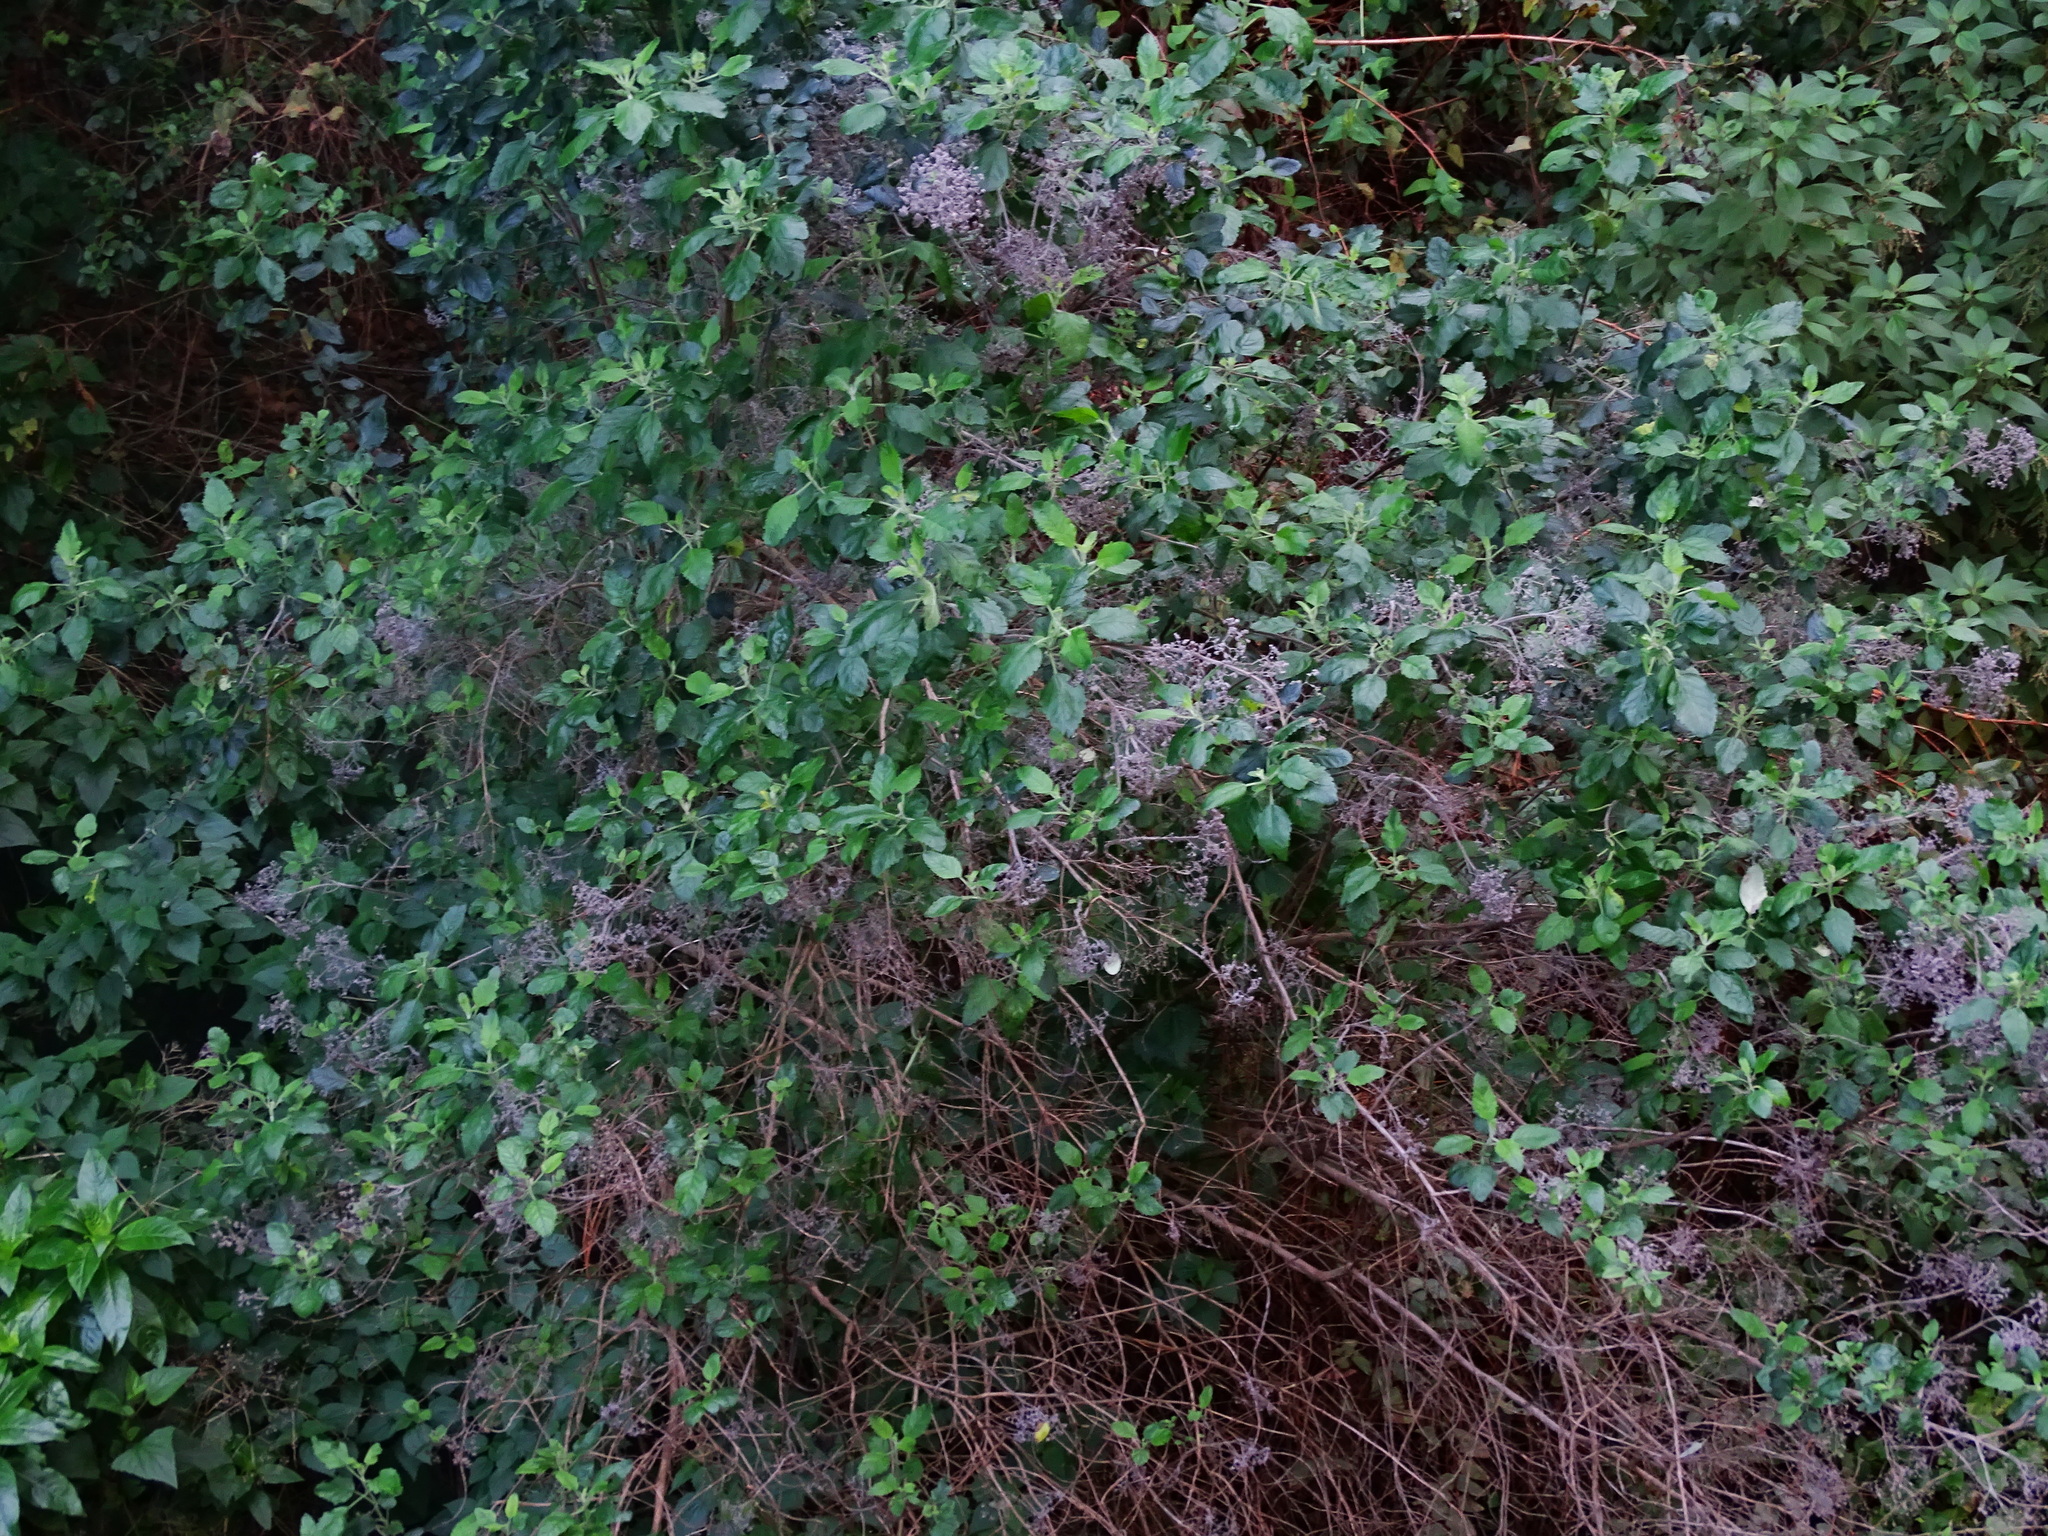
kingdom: Plantae
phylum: Tracheophyta
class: Magnoliopsida
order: Lamiales
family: Lamiaceae
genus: Bystropogon
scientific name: Bystropogon canariensis
